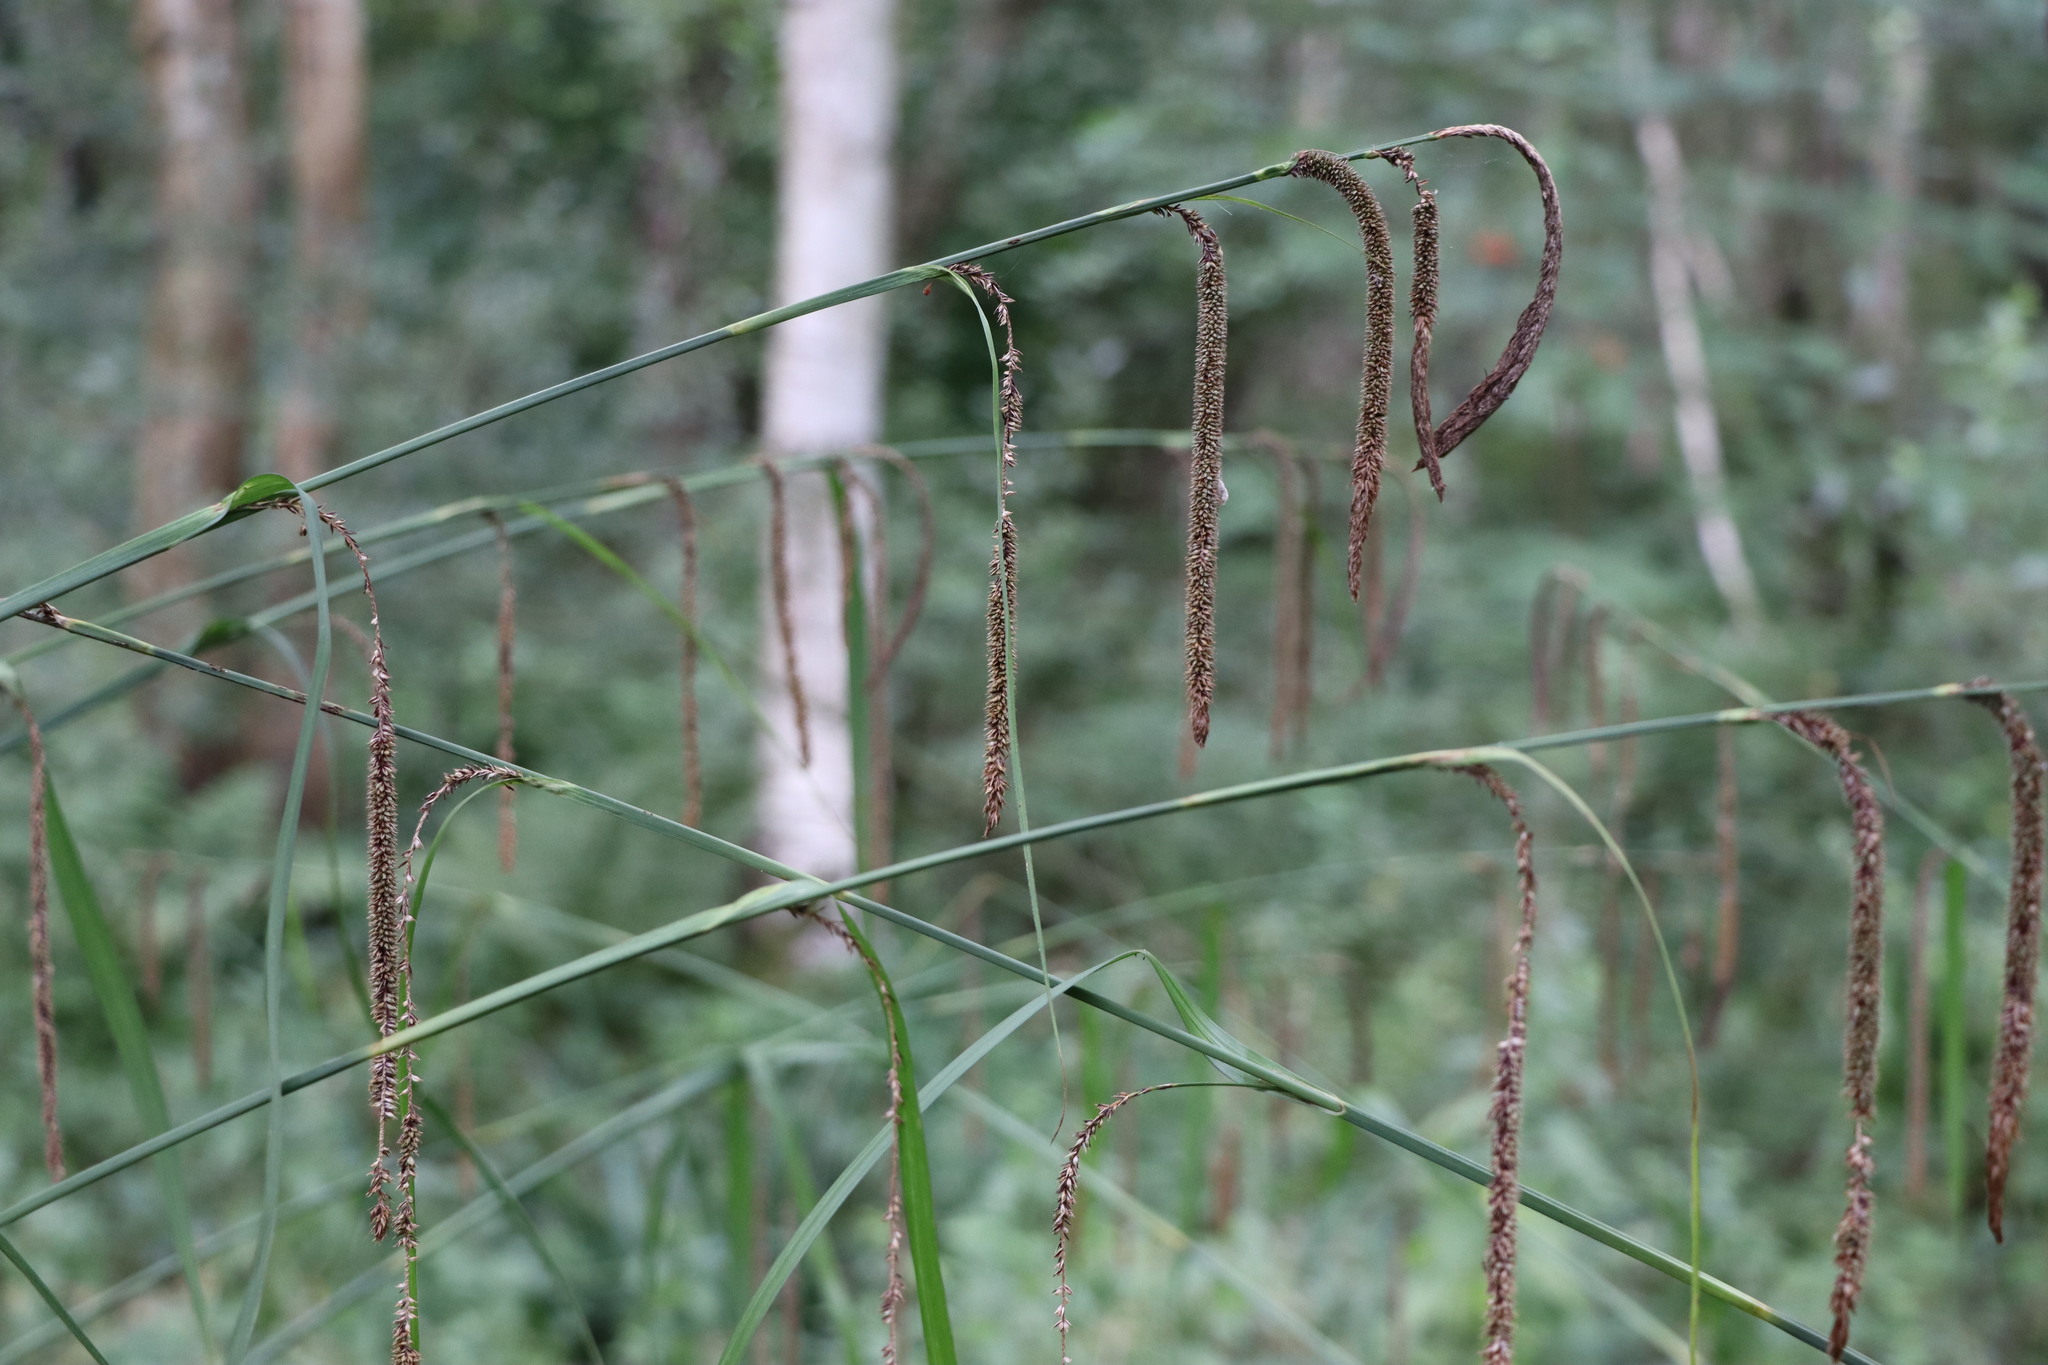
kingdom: Plantae
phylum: Tracheophyta
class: Liliopsida
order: Poales
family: Cyperaceae
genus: Carex
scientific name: Carex pendula
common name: Pendulous sedge
